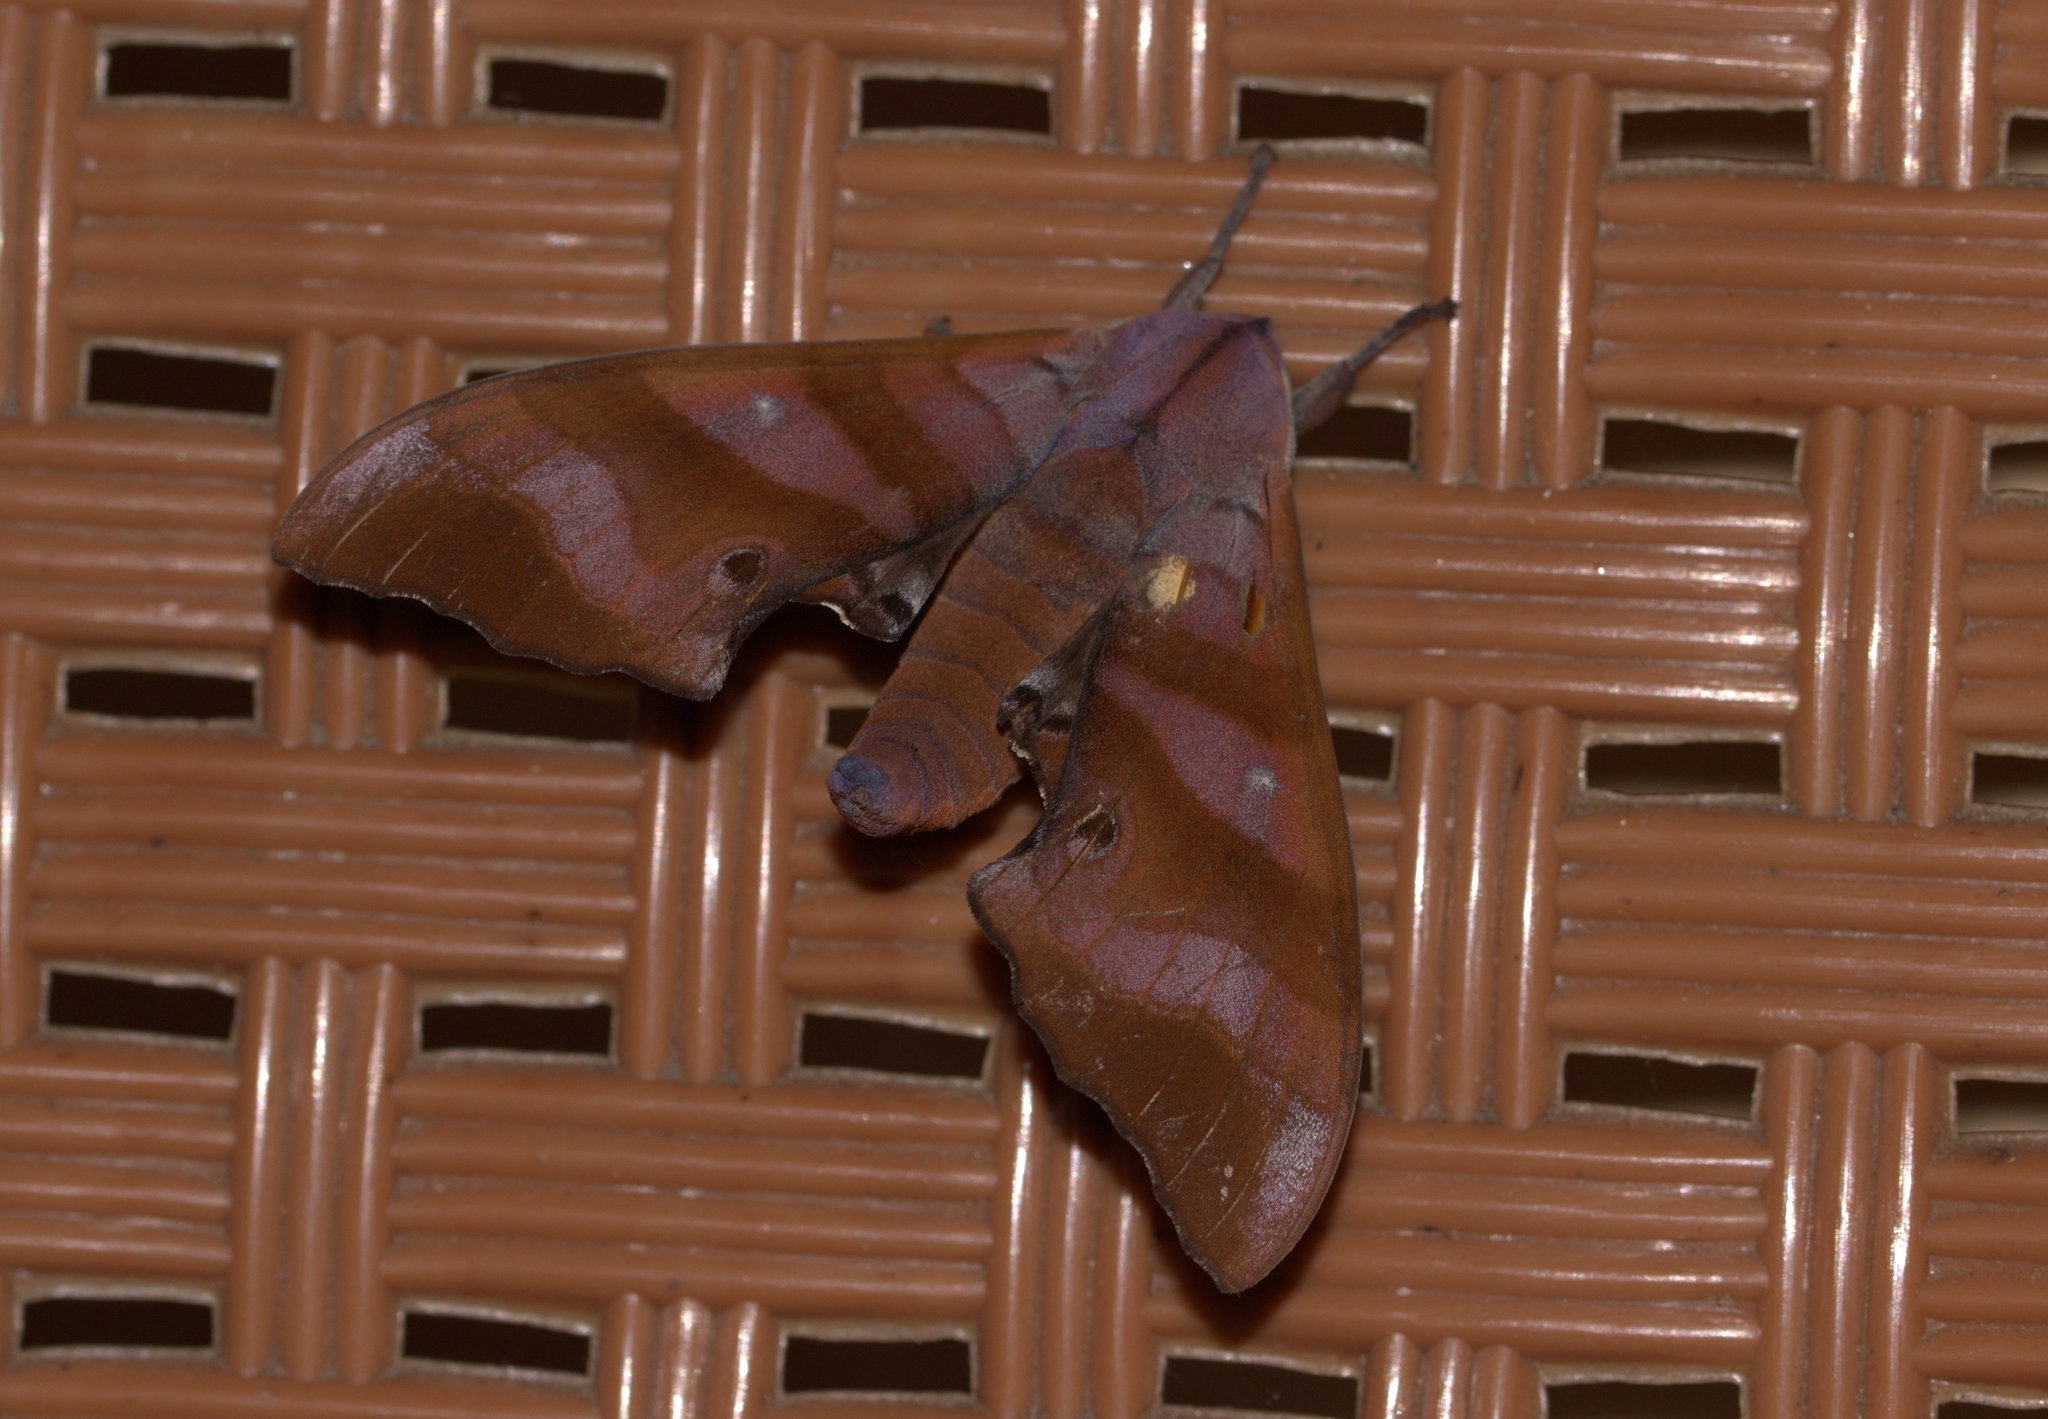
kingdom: Animalia
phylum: Arthropoda
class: Insecta
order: Lepidoptera
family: Sphingidae
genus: Marumba
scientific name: Marumba nympha
